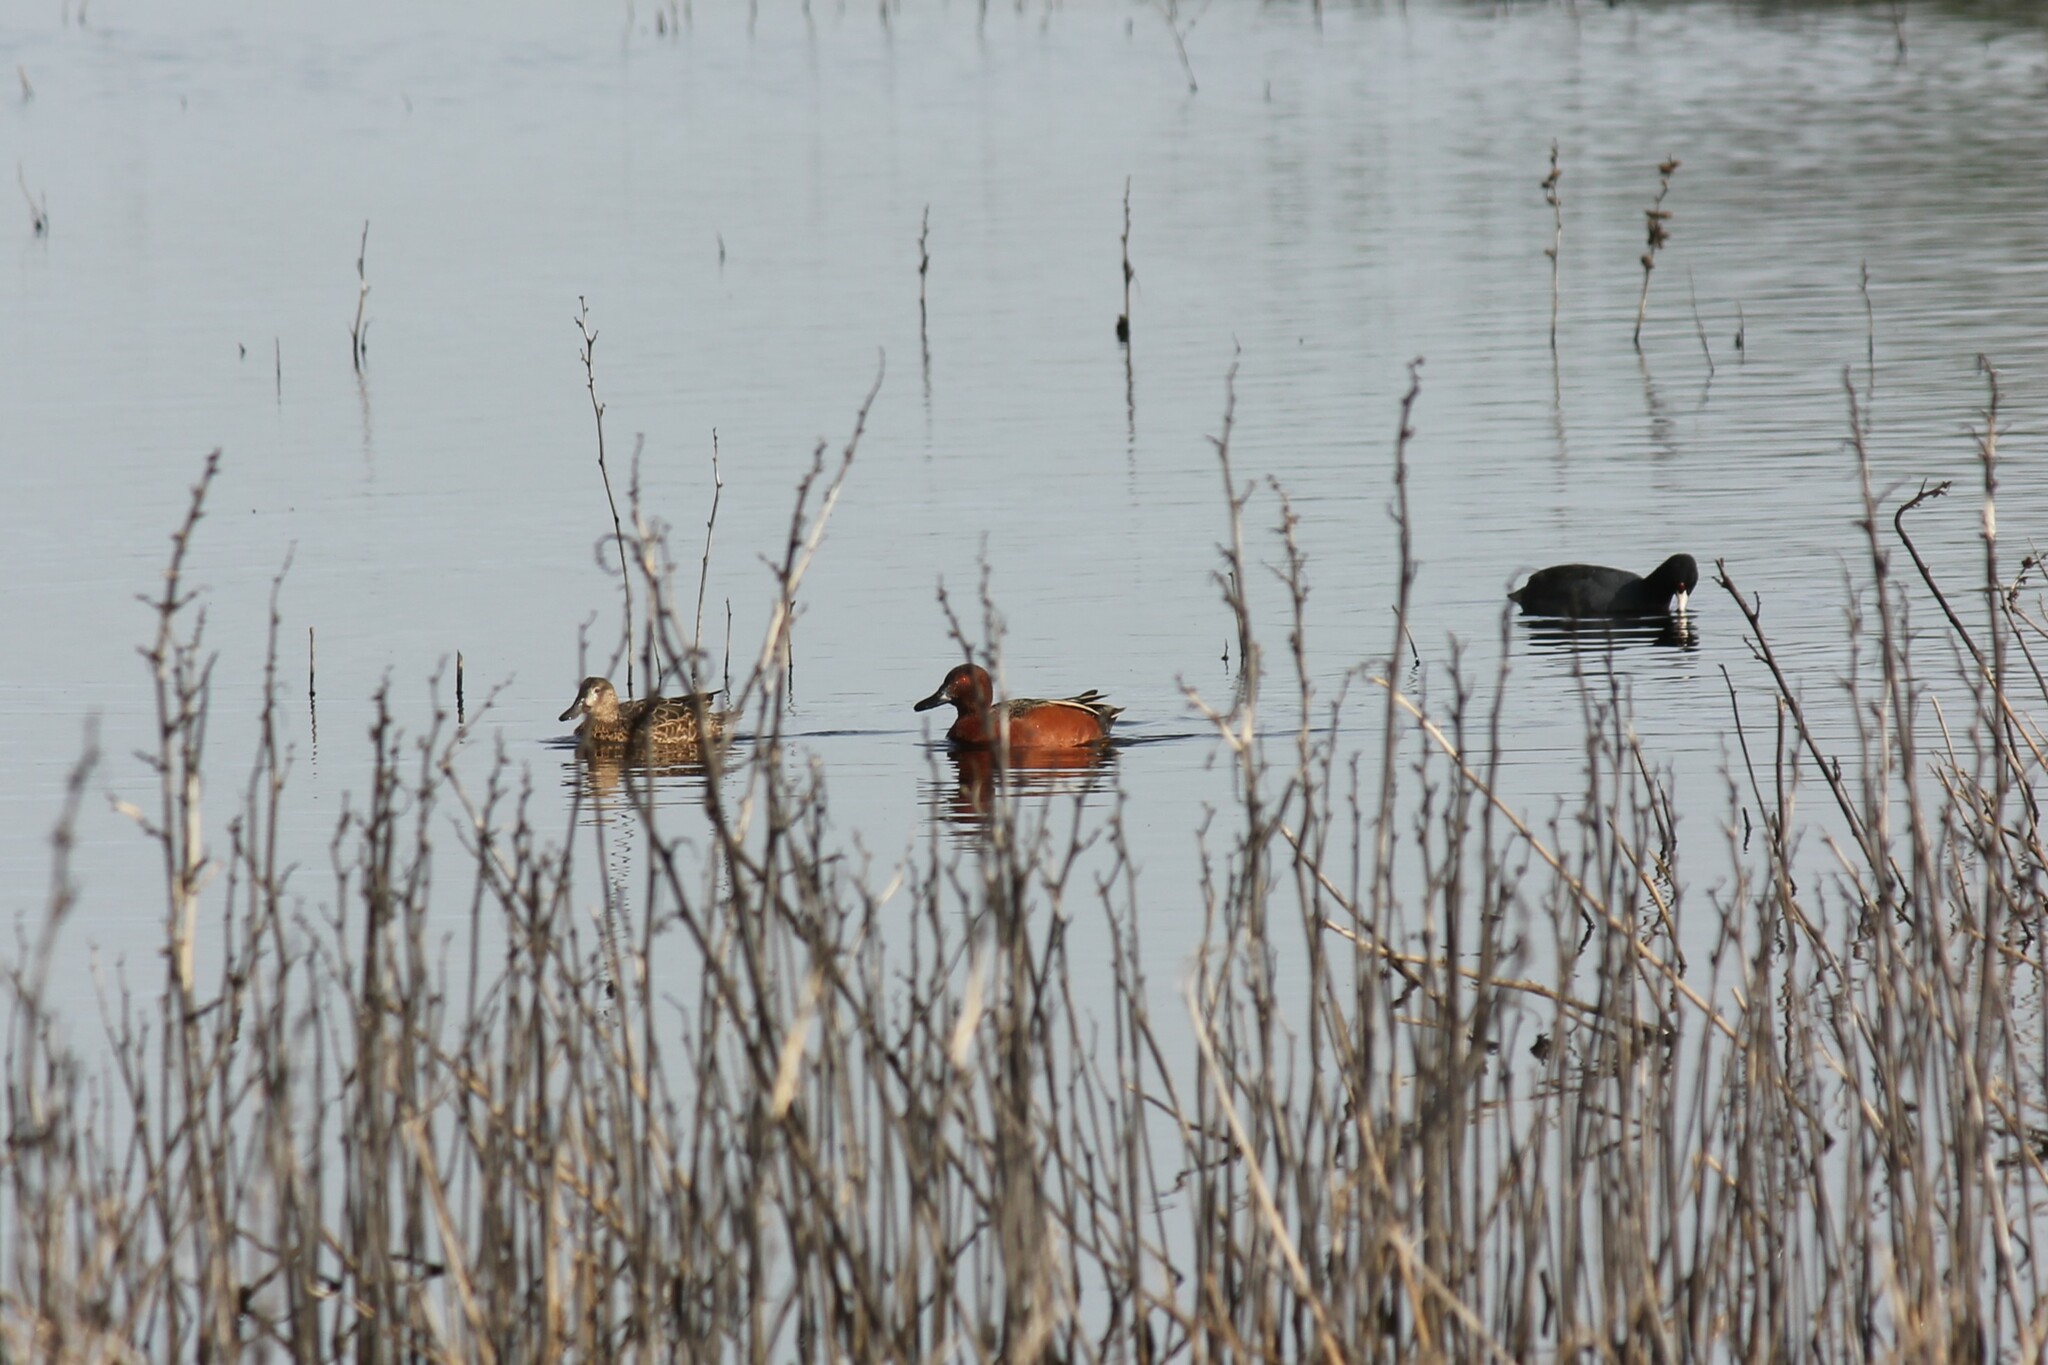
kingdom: Animalia
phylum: Chordata
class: Aves
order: Anseriformes
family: Anatidae
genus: Spatula
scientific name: Spatula cyanoptera
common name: Cinnamon teal
